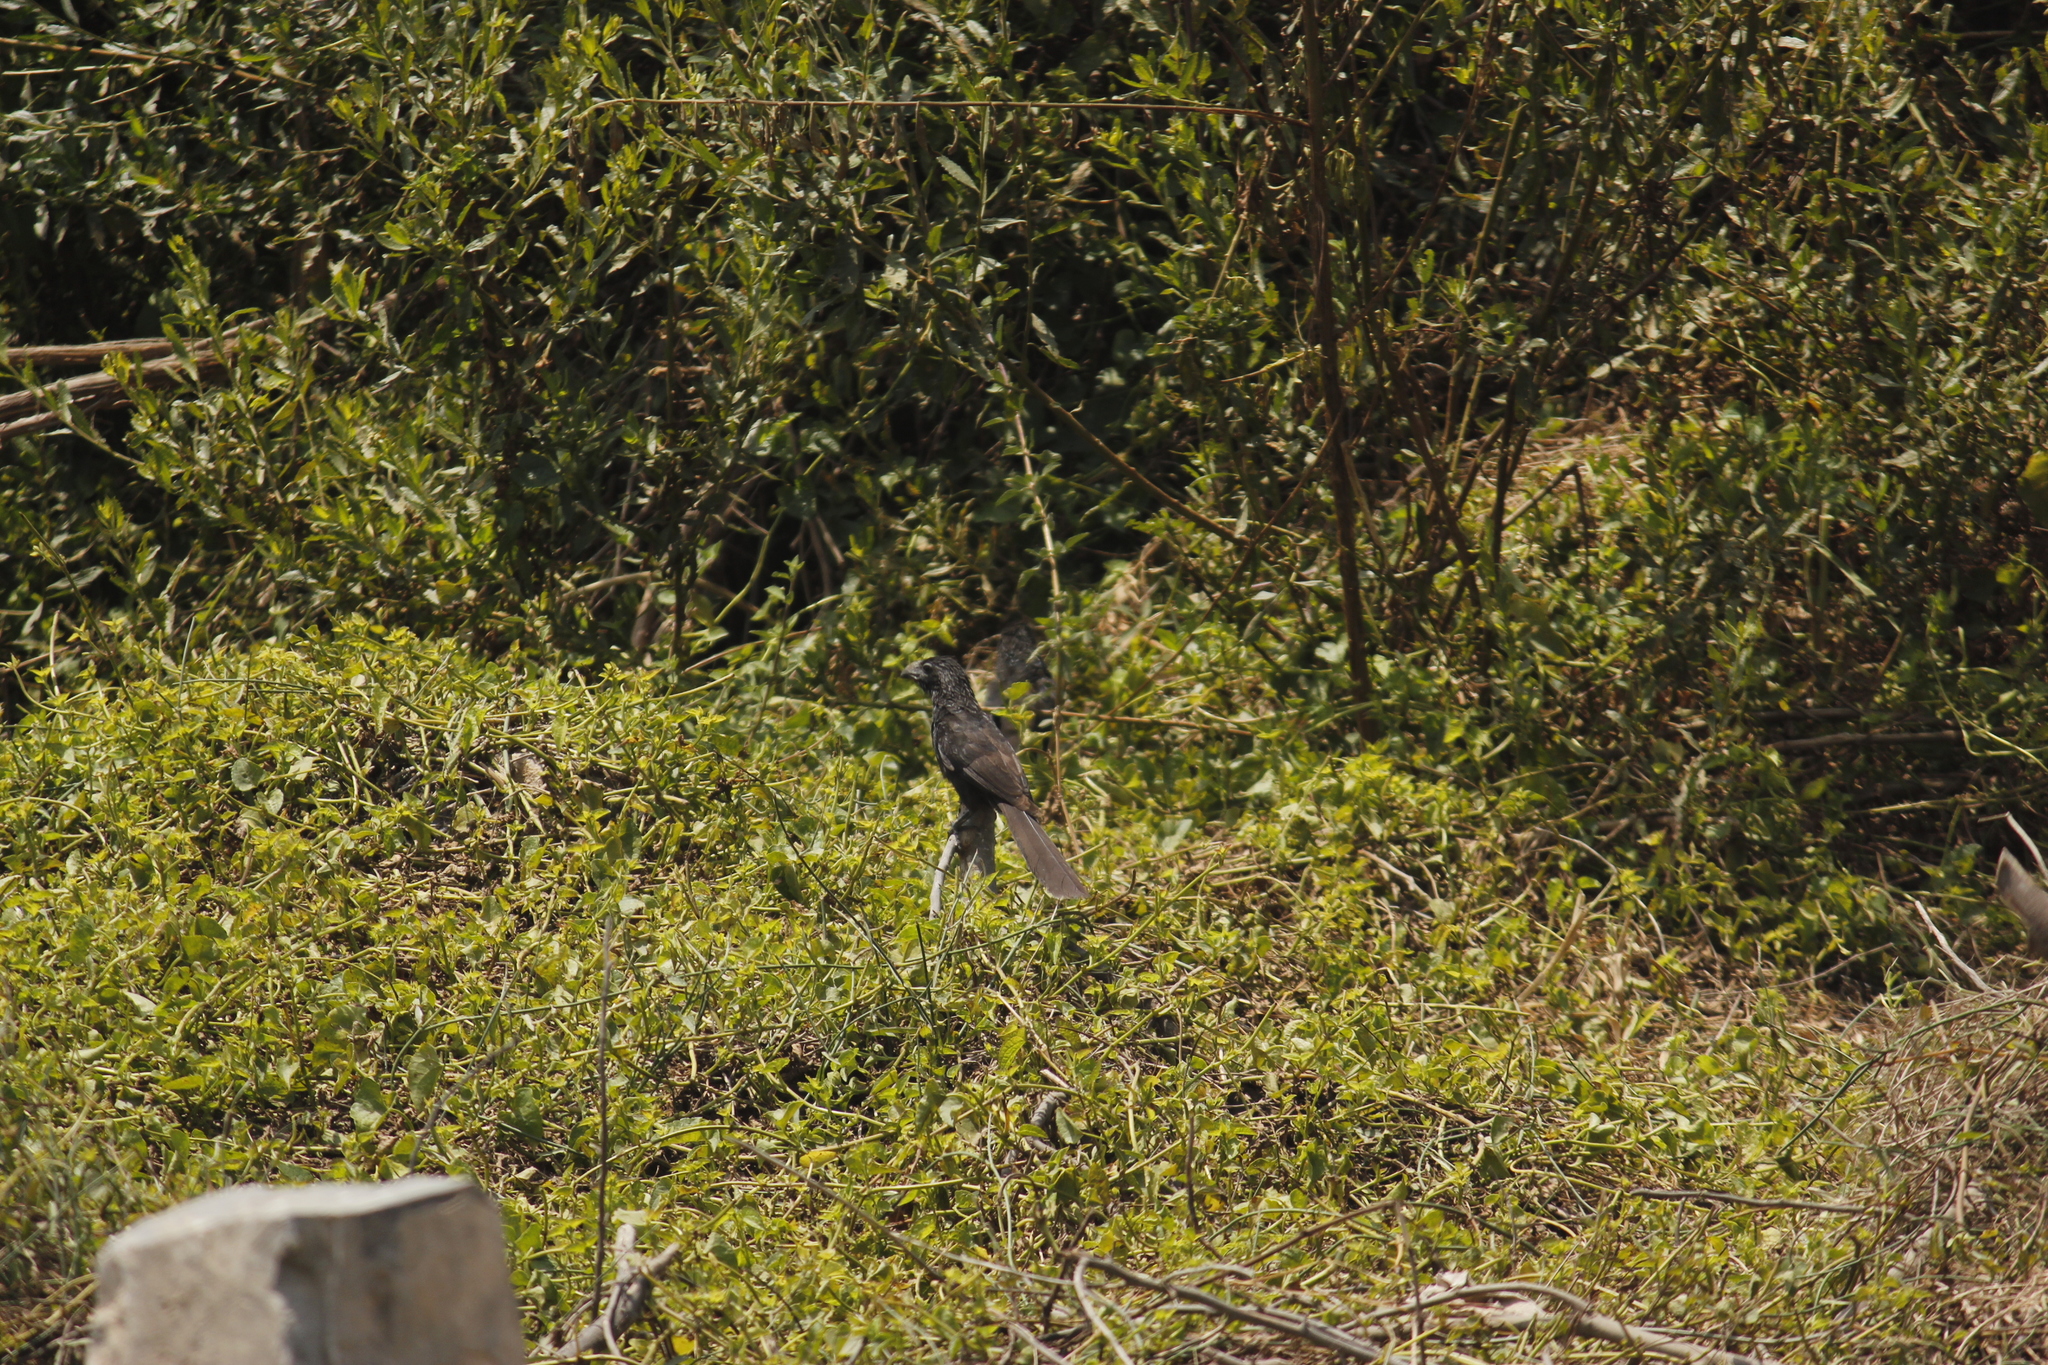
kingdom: Animalia
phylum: Chordata
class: Aves
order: Cuculiformes
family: Cuculidae
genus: Crotophaga
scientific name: Crotophaga sulcirostris
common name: Groove-billed ani
